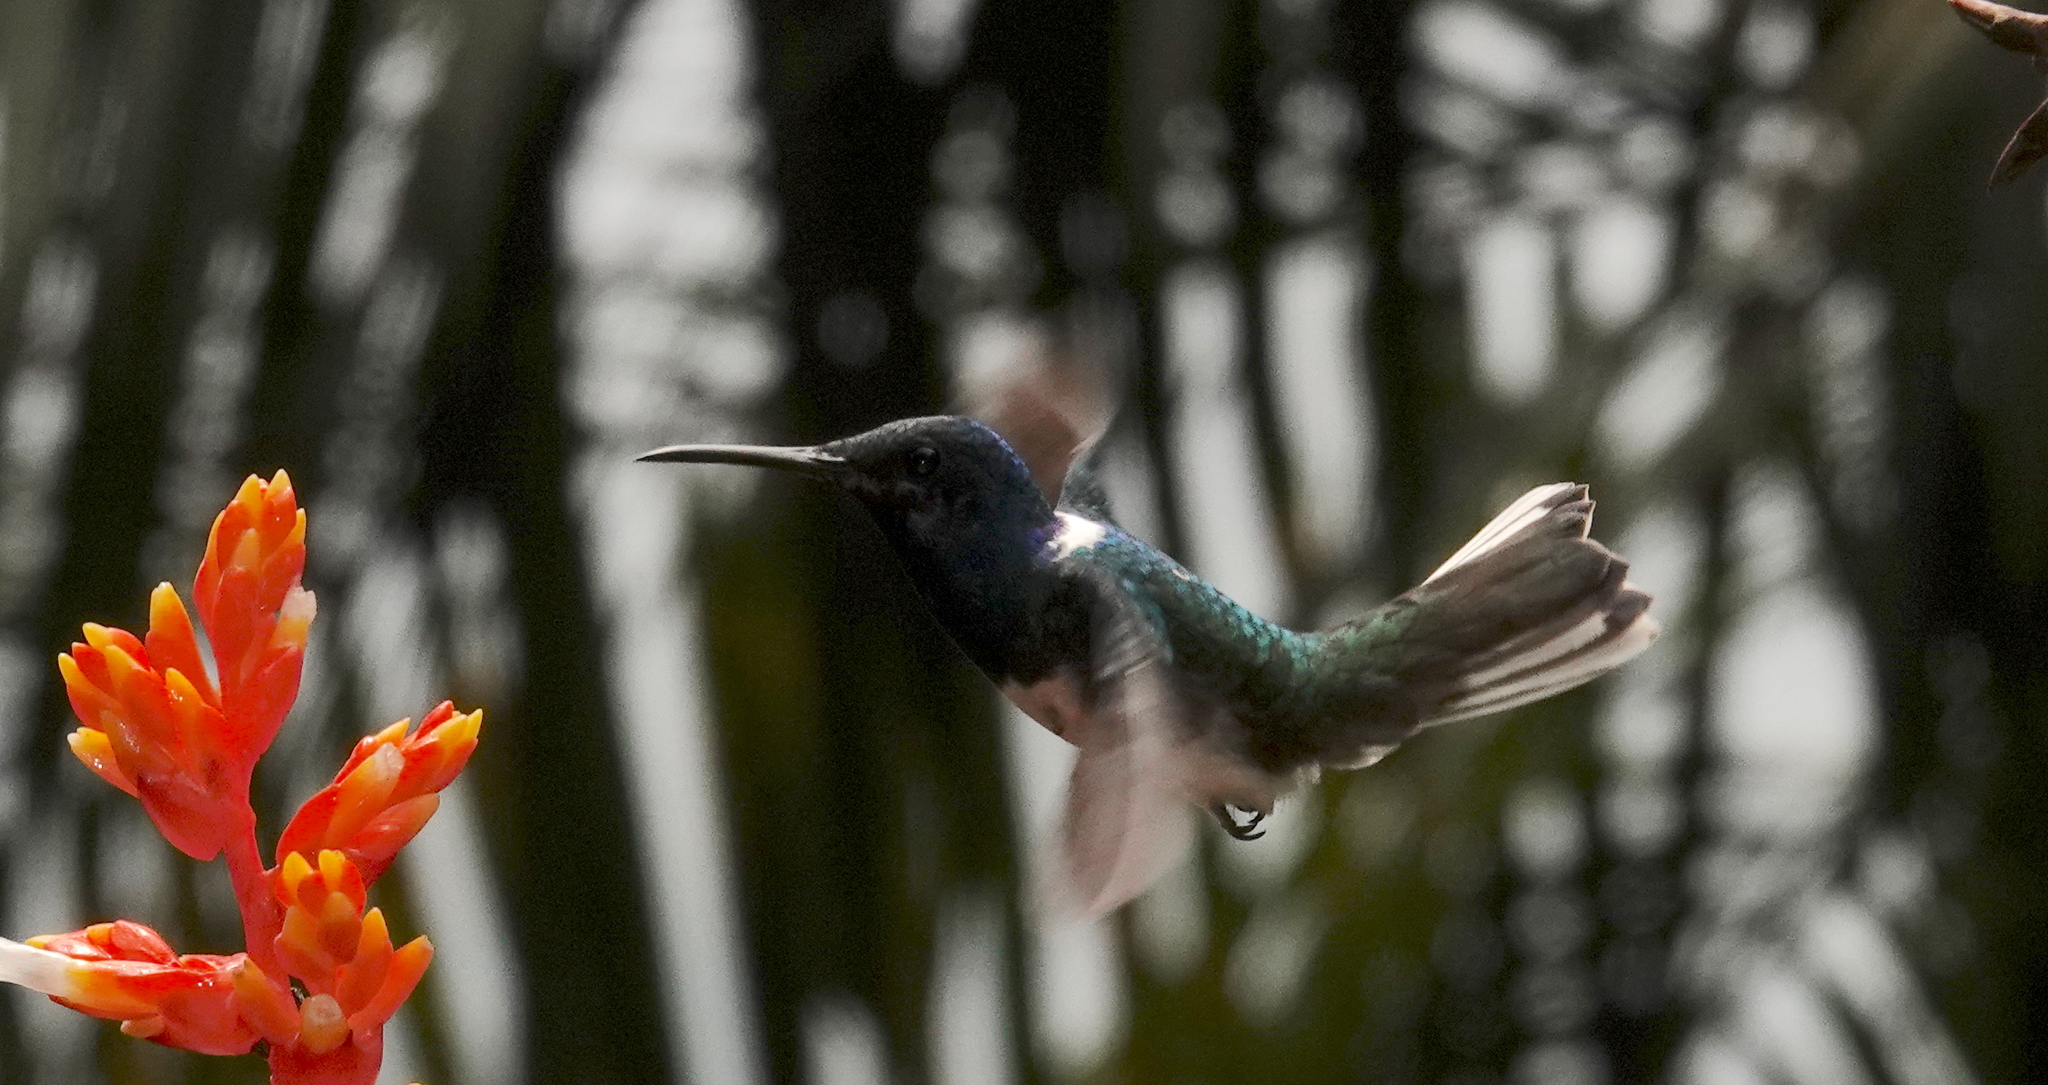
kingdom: Animalia
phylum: Chordata
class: Aves
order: Apodiformes
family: Trochilidae
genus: Florisuga
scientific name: Florisuga mellivora
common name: White-necked jacobin
